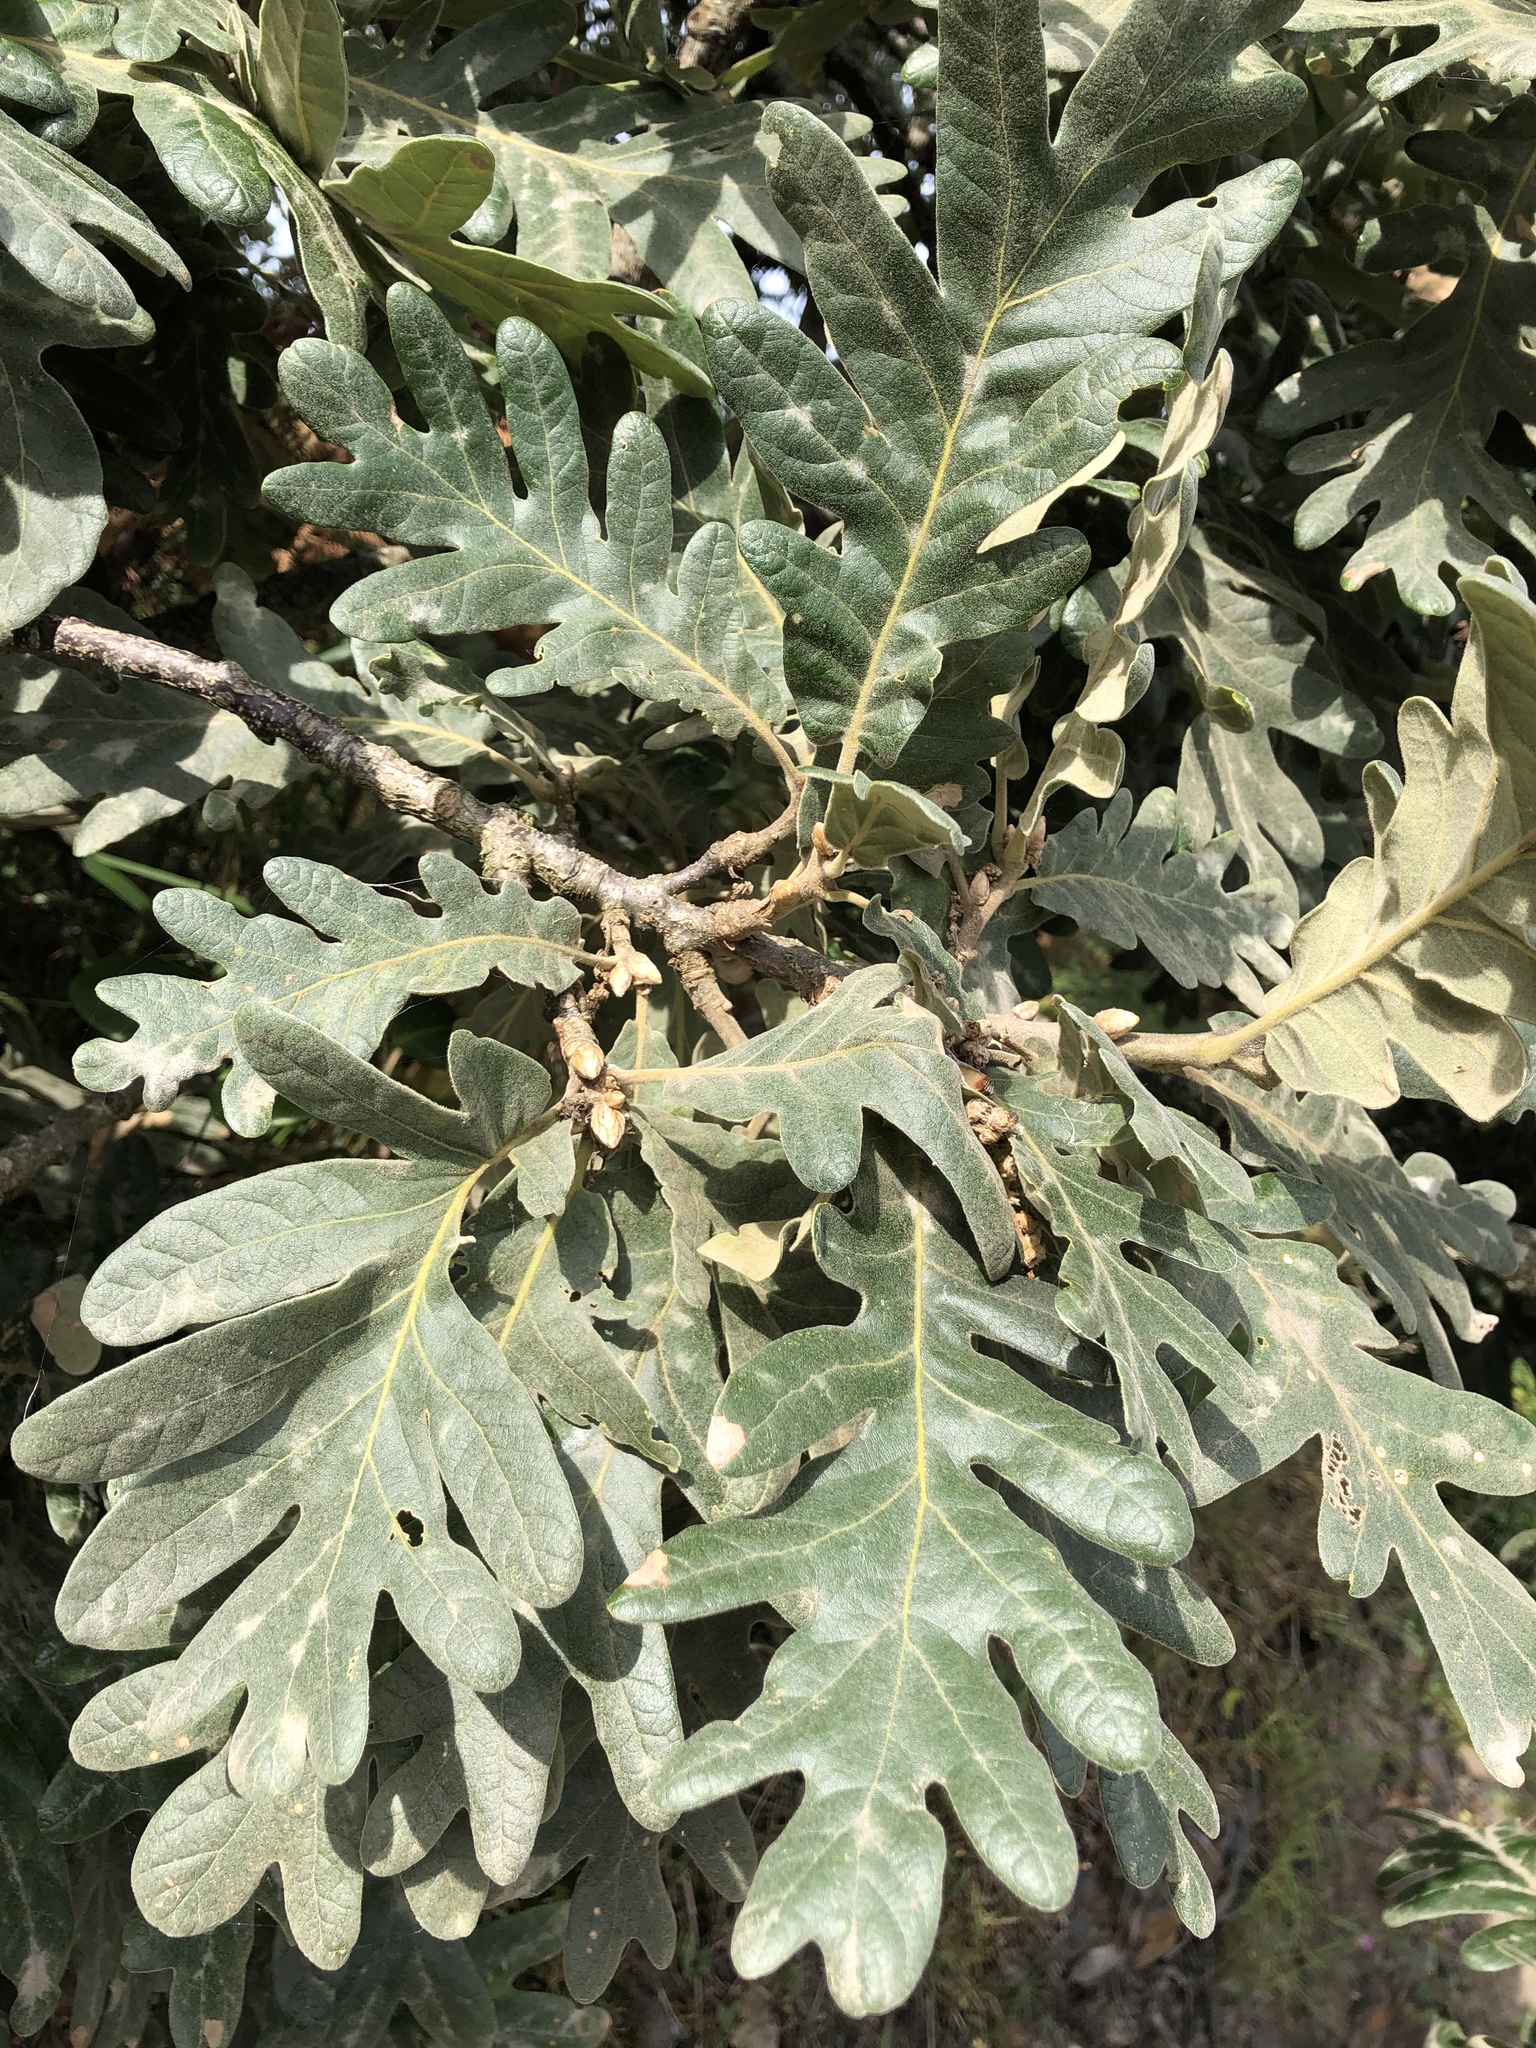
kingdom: Plantae
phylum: Tracheophyta
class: Magnoliopsida
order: Fagales
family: Fagaceae
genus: Quercus
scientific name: Quercus pyrenaica
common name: Pyrenean oak
